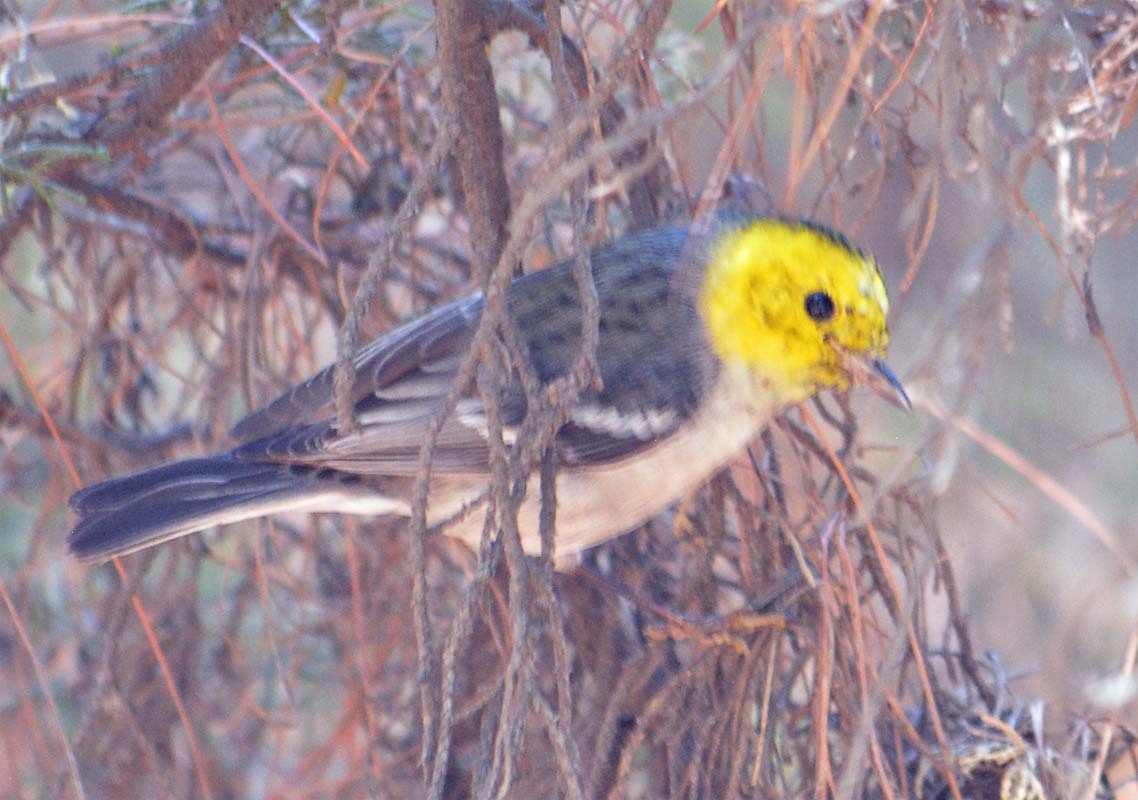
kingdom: Animalia
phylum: Chordata
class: Aves
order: Passeriformes
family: Parulidae
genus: Setophaga
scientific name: Setophaga occidentalis
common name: Hermit warbler
